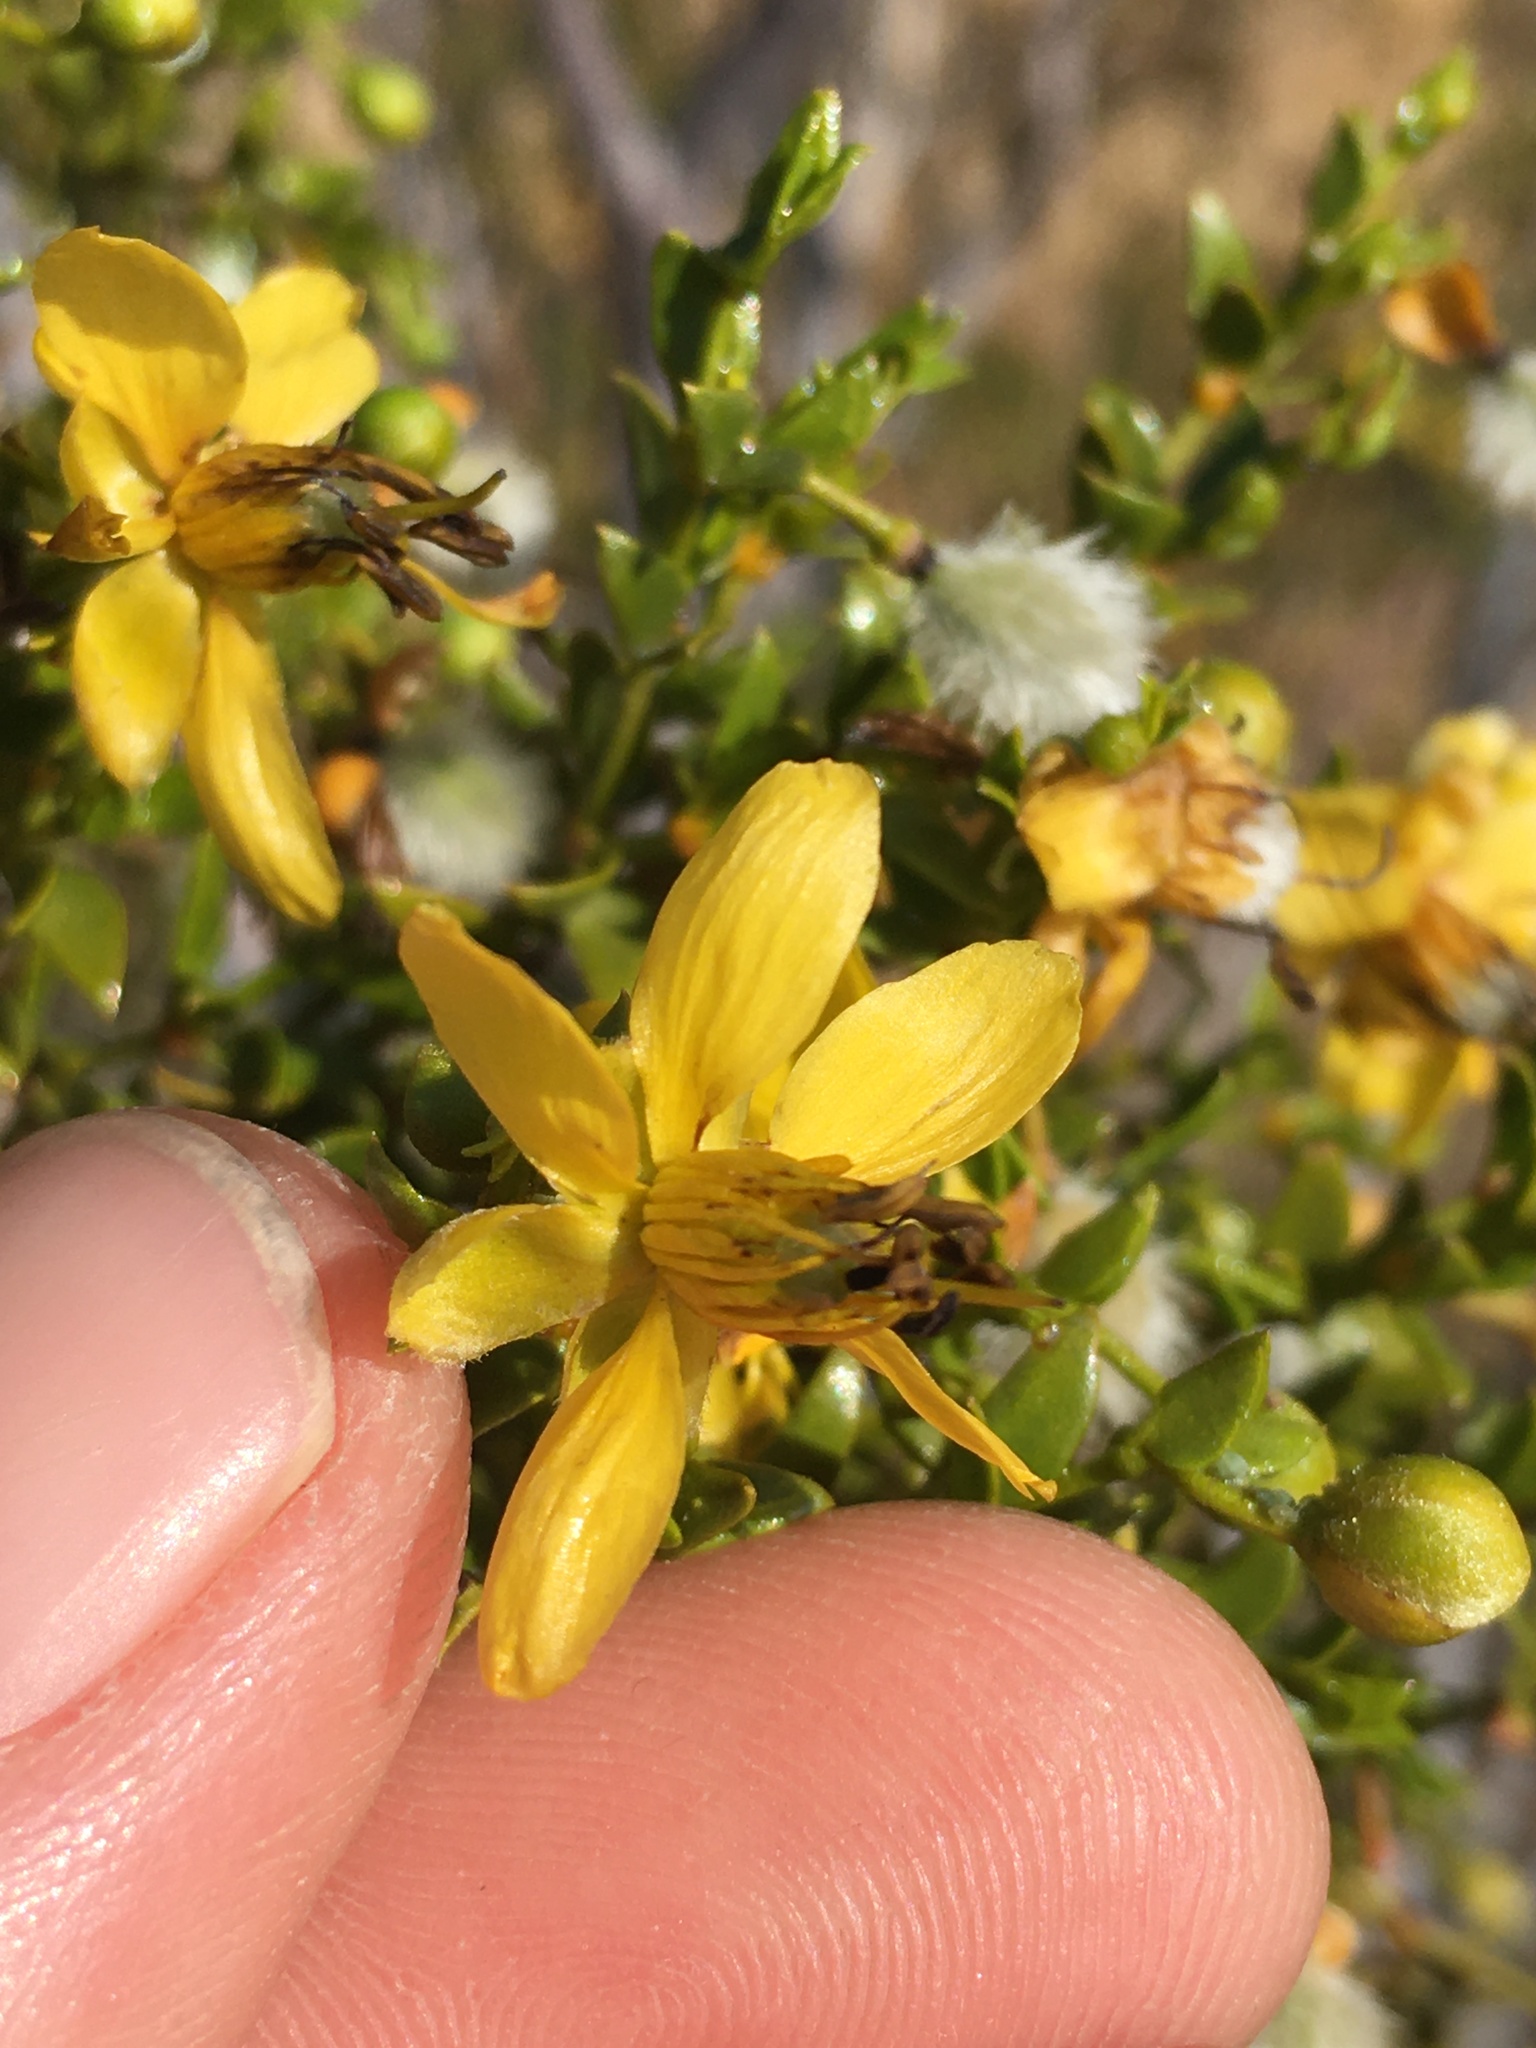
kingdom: Plantae
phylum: Tracheophyta
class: Magnoliopsida
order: Zygophyllales
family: Zygophyllaceae
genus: Larrea
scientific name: Larrea tridentata
